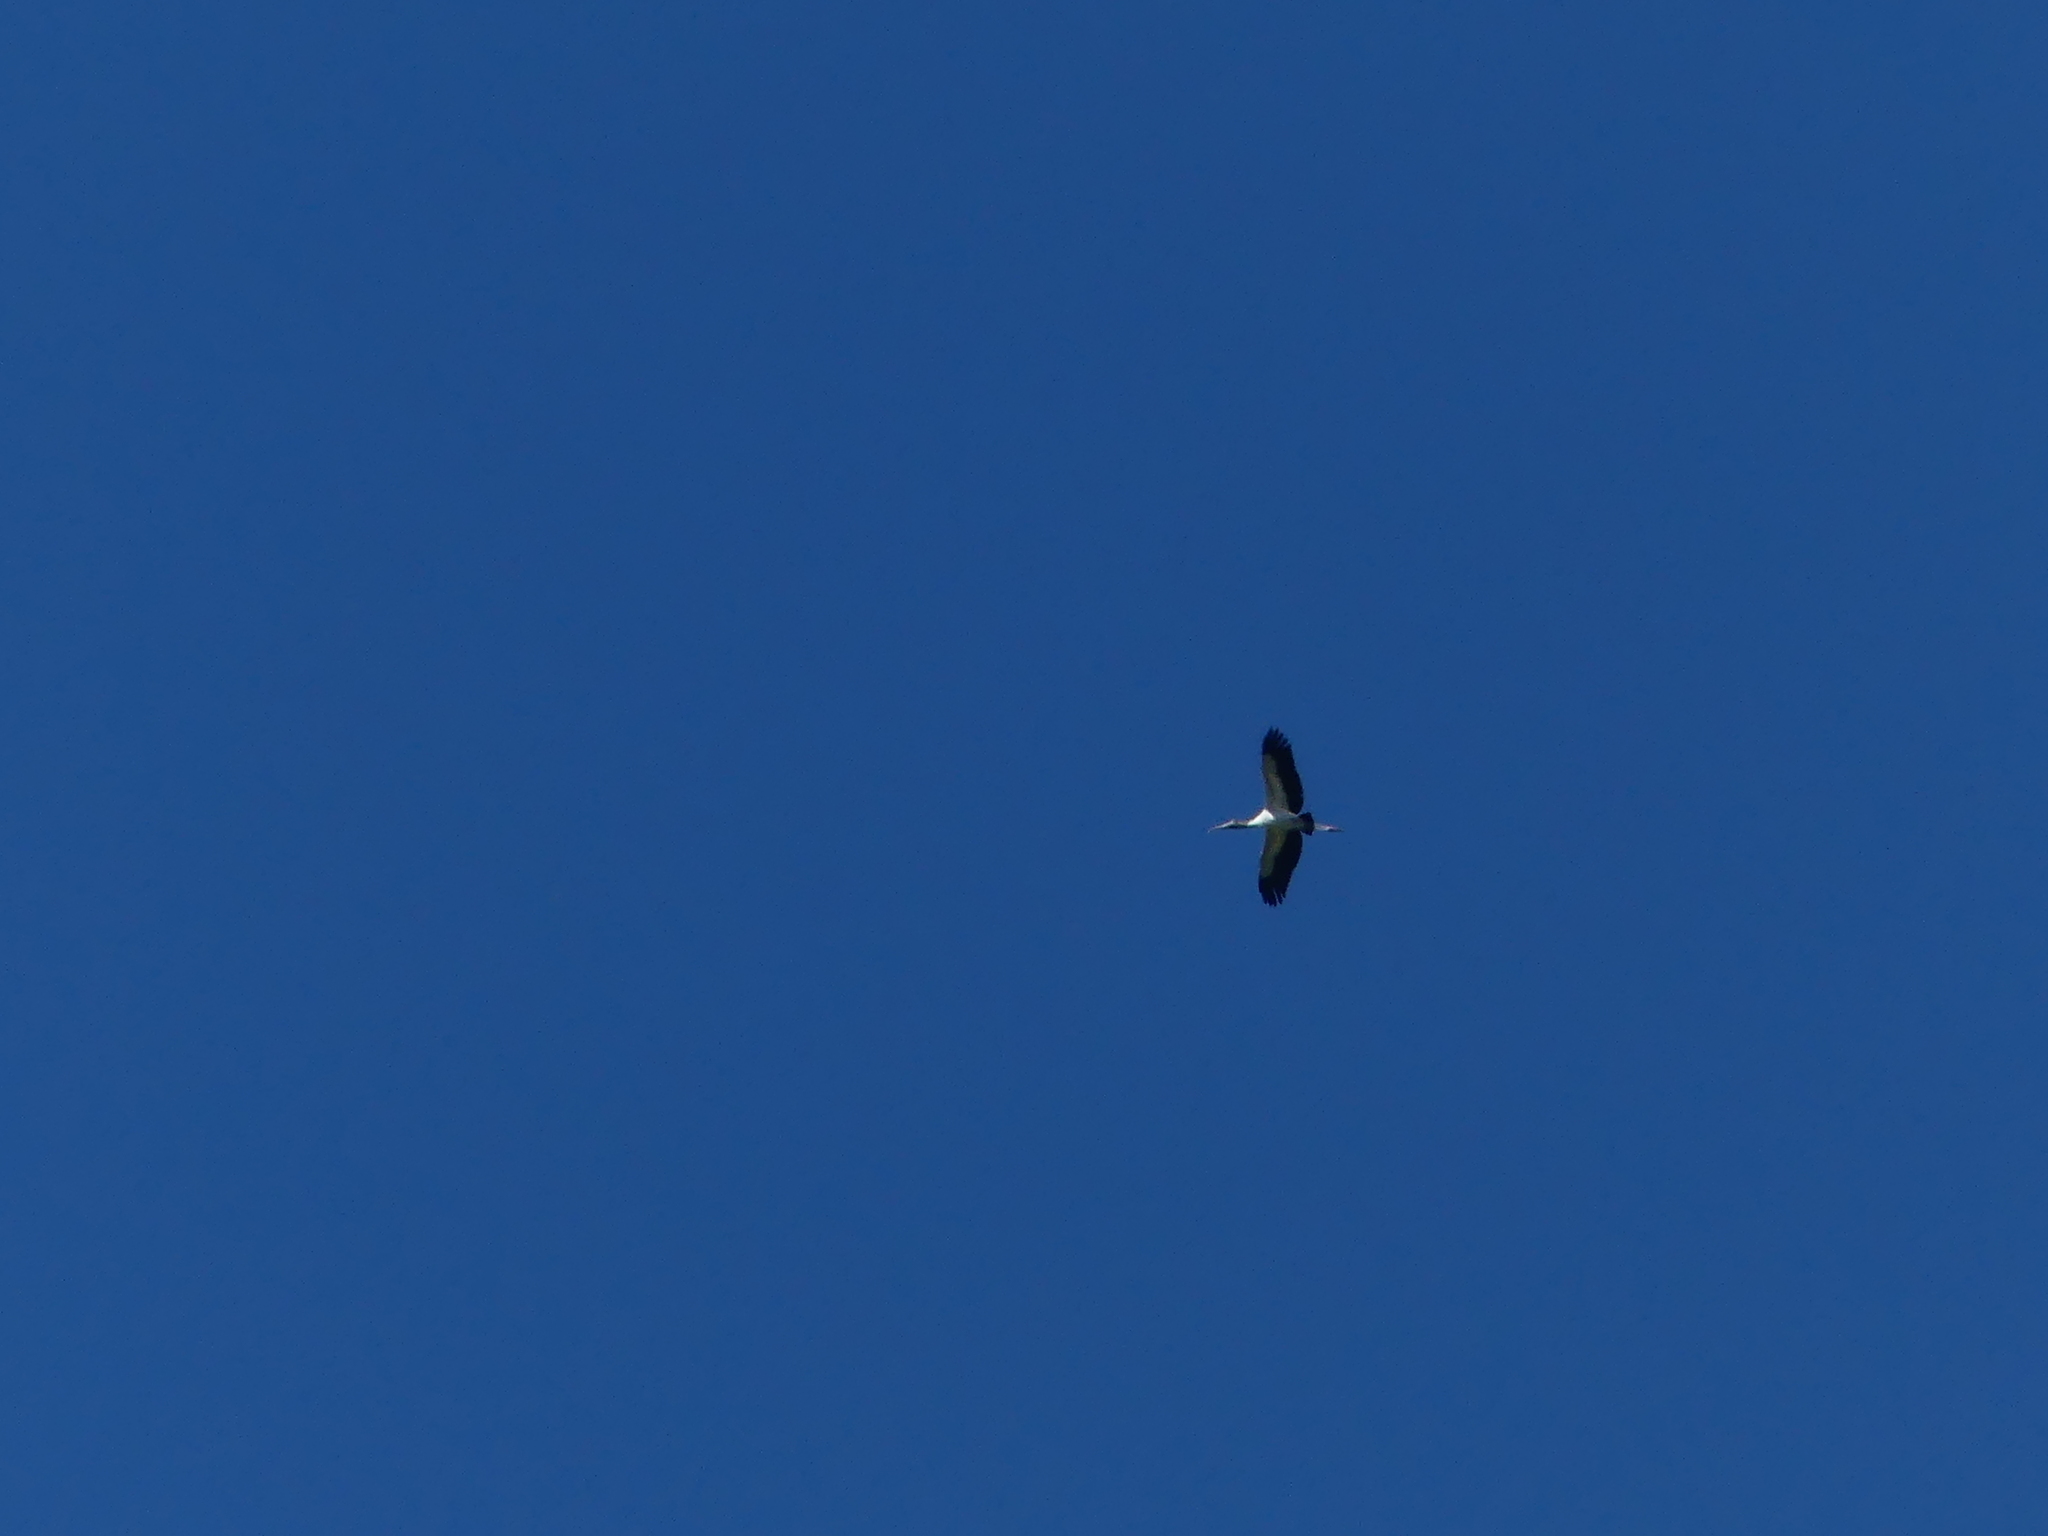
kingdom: Animalia
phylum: Chordata
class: Aves
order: Ciconiiformes
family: Ciconiidae
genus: Mycteria
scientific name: Mycteria americana
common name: Wood stork
